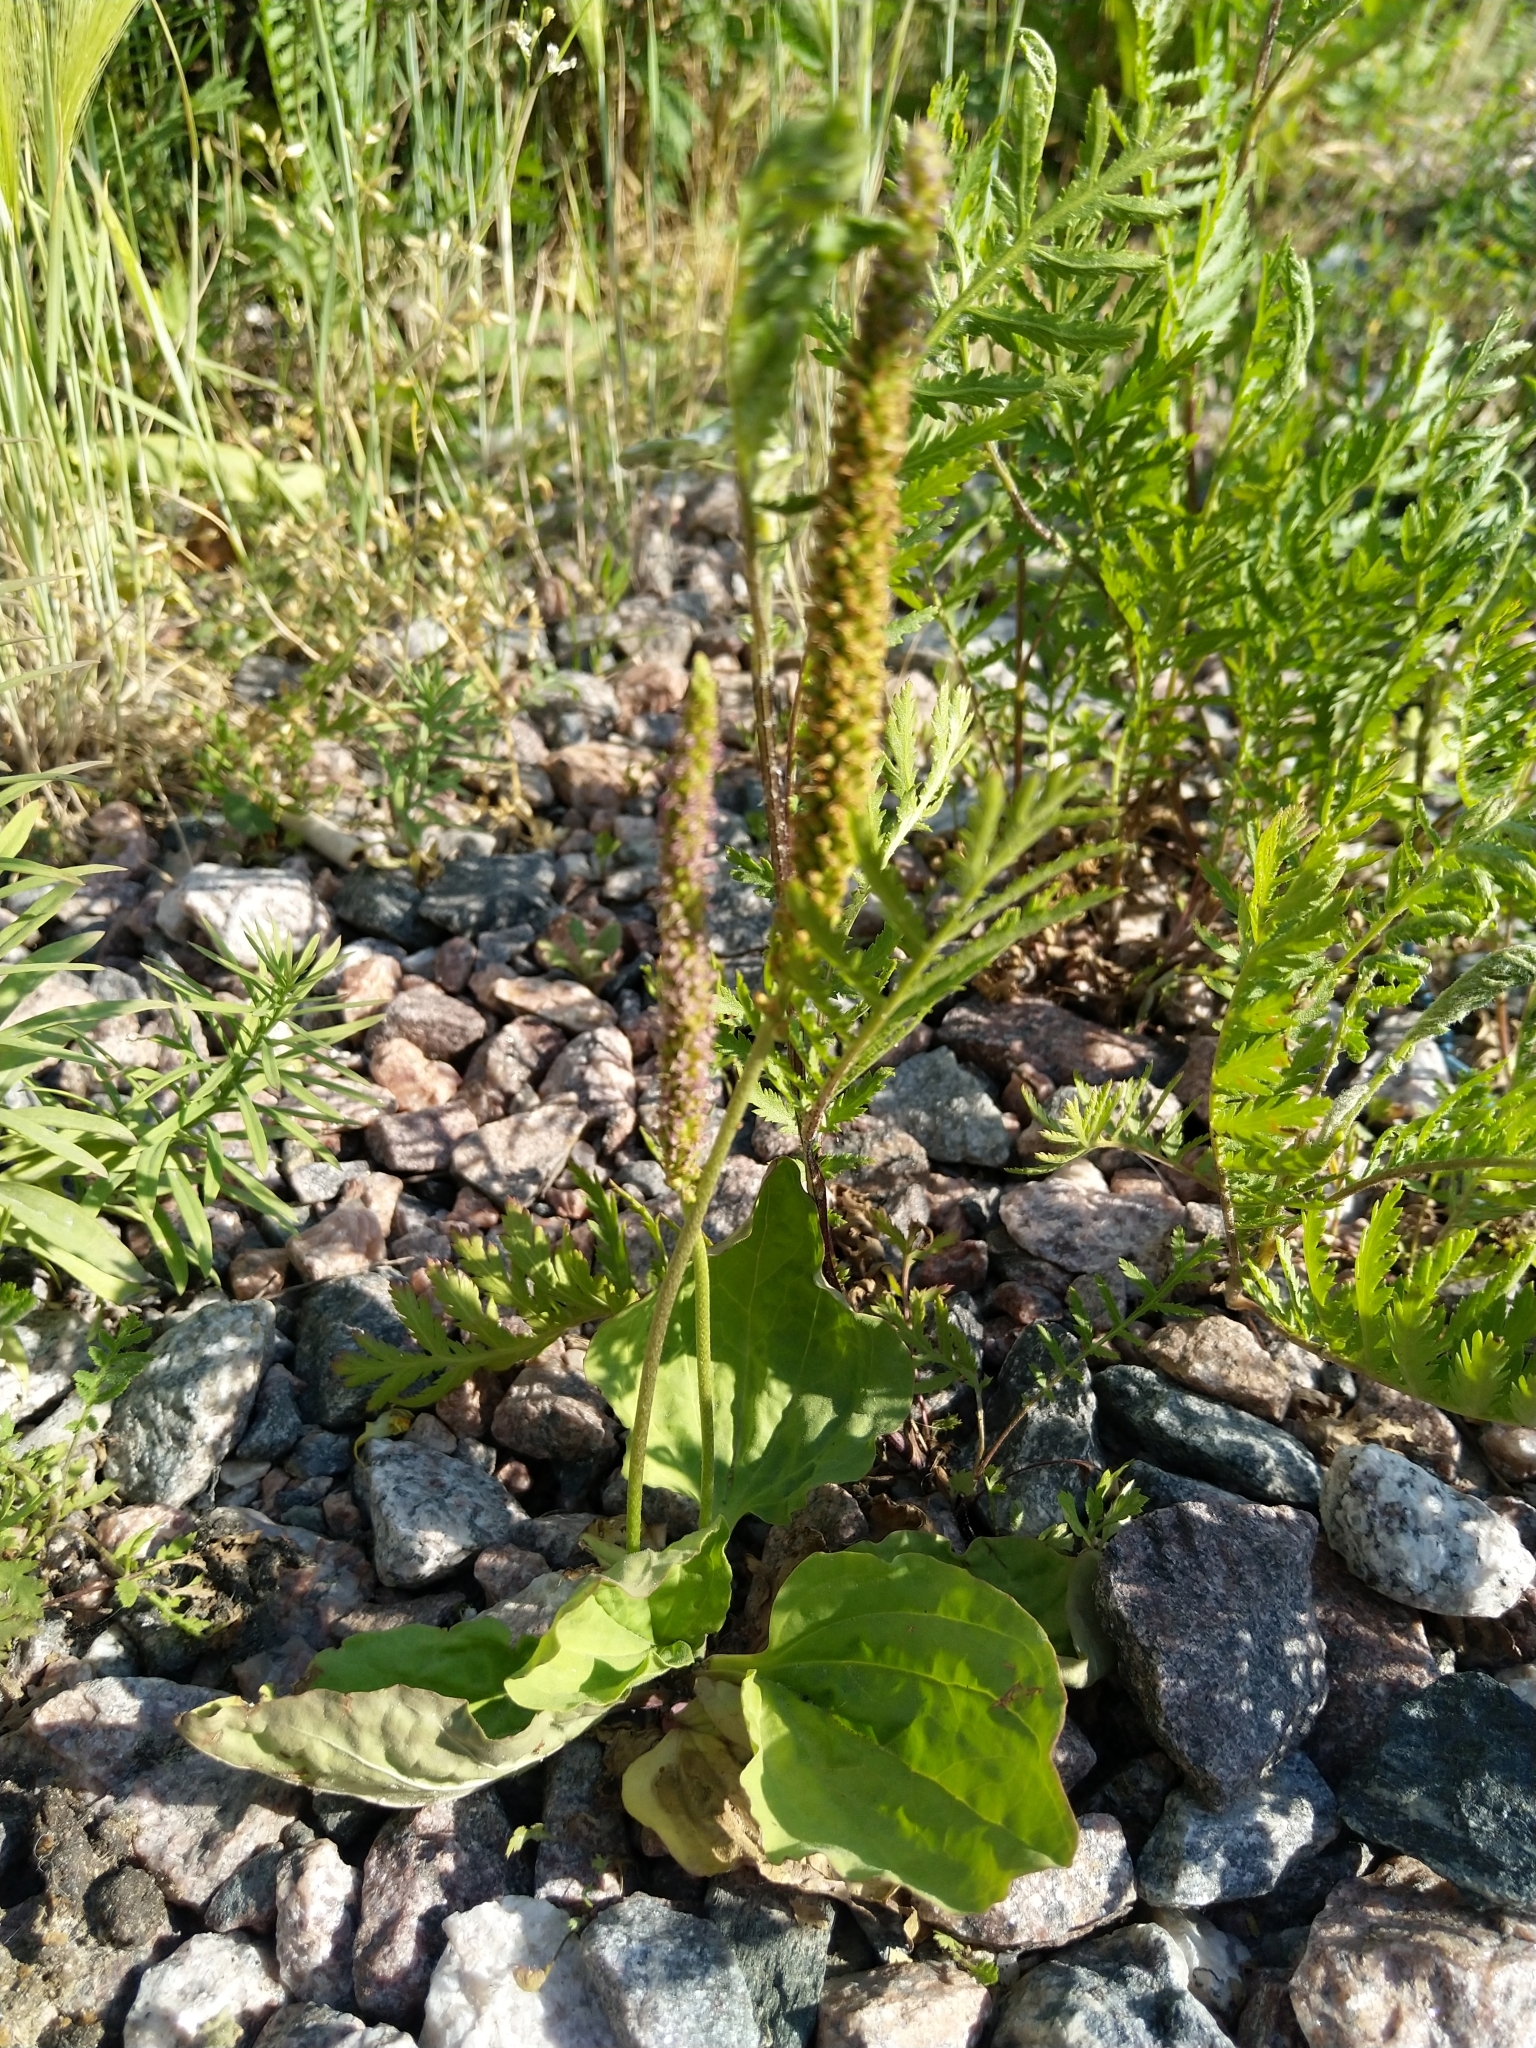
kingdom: Plantae
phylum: Tracheophyta
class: Magnoliopsida
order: Lamiales
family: Plantaginaceae
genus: Plantago
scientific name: Plantago major
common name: Common plantain
